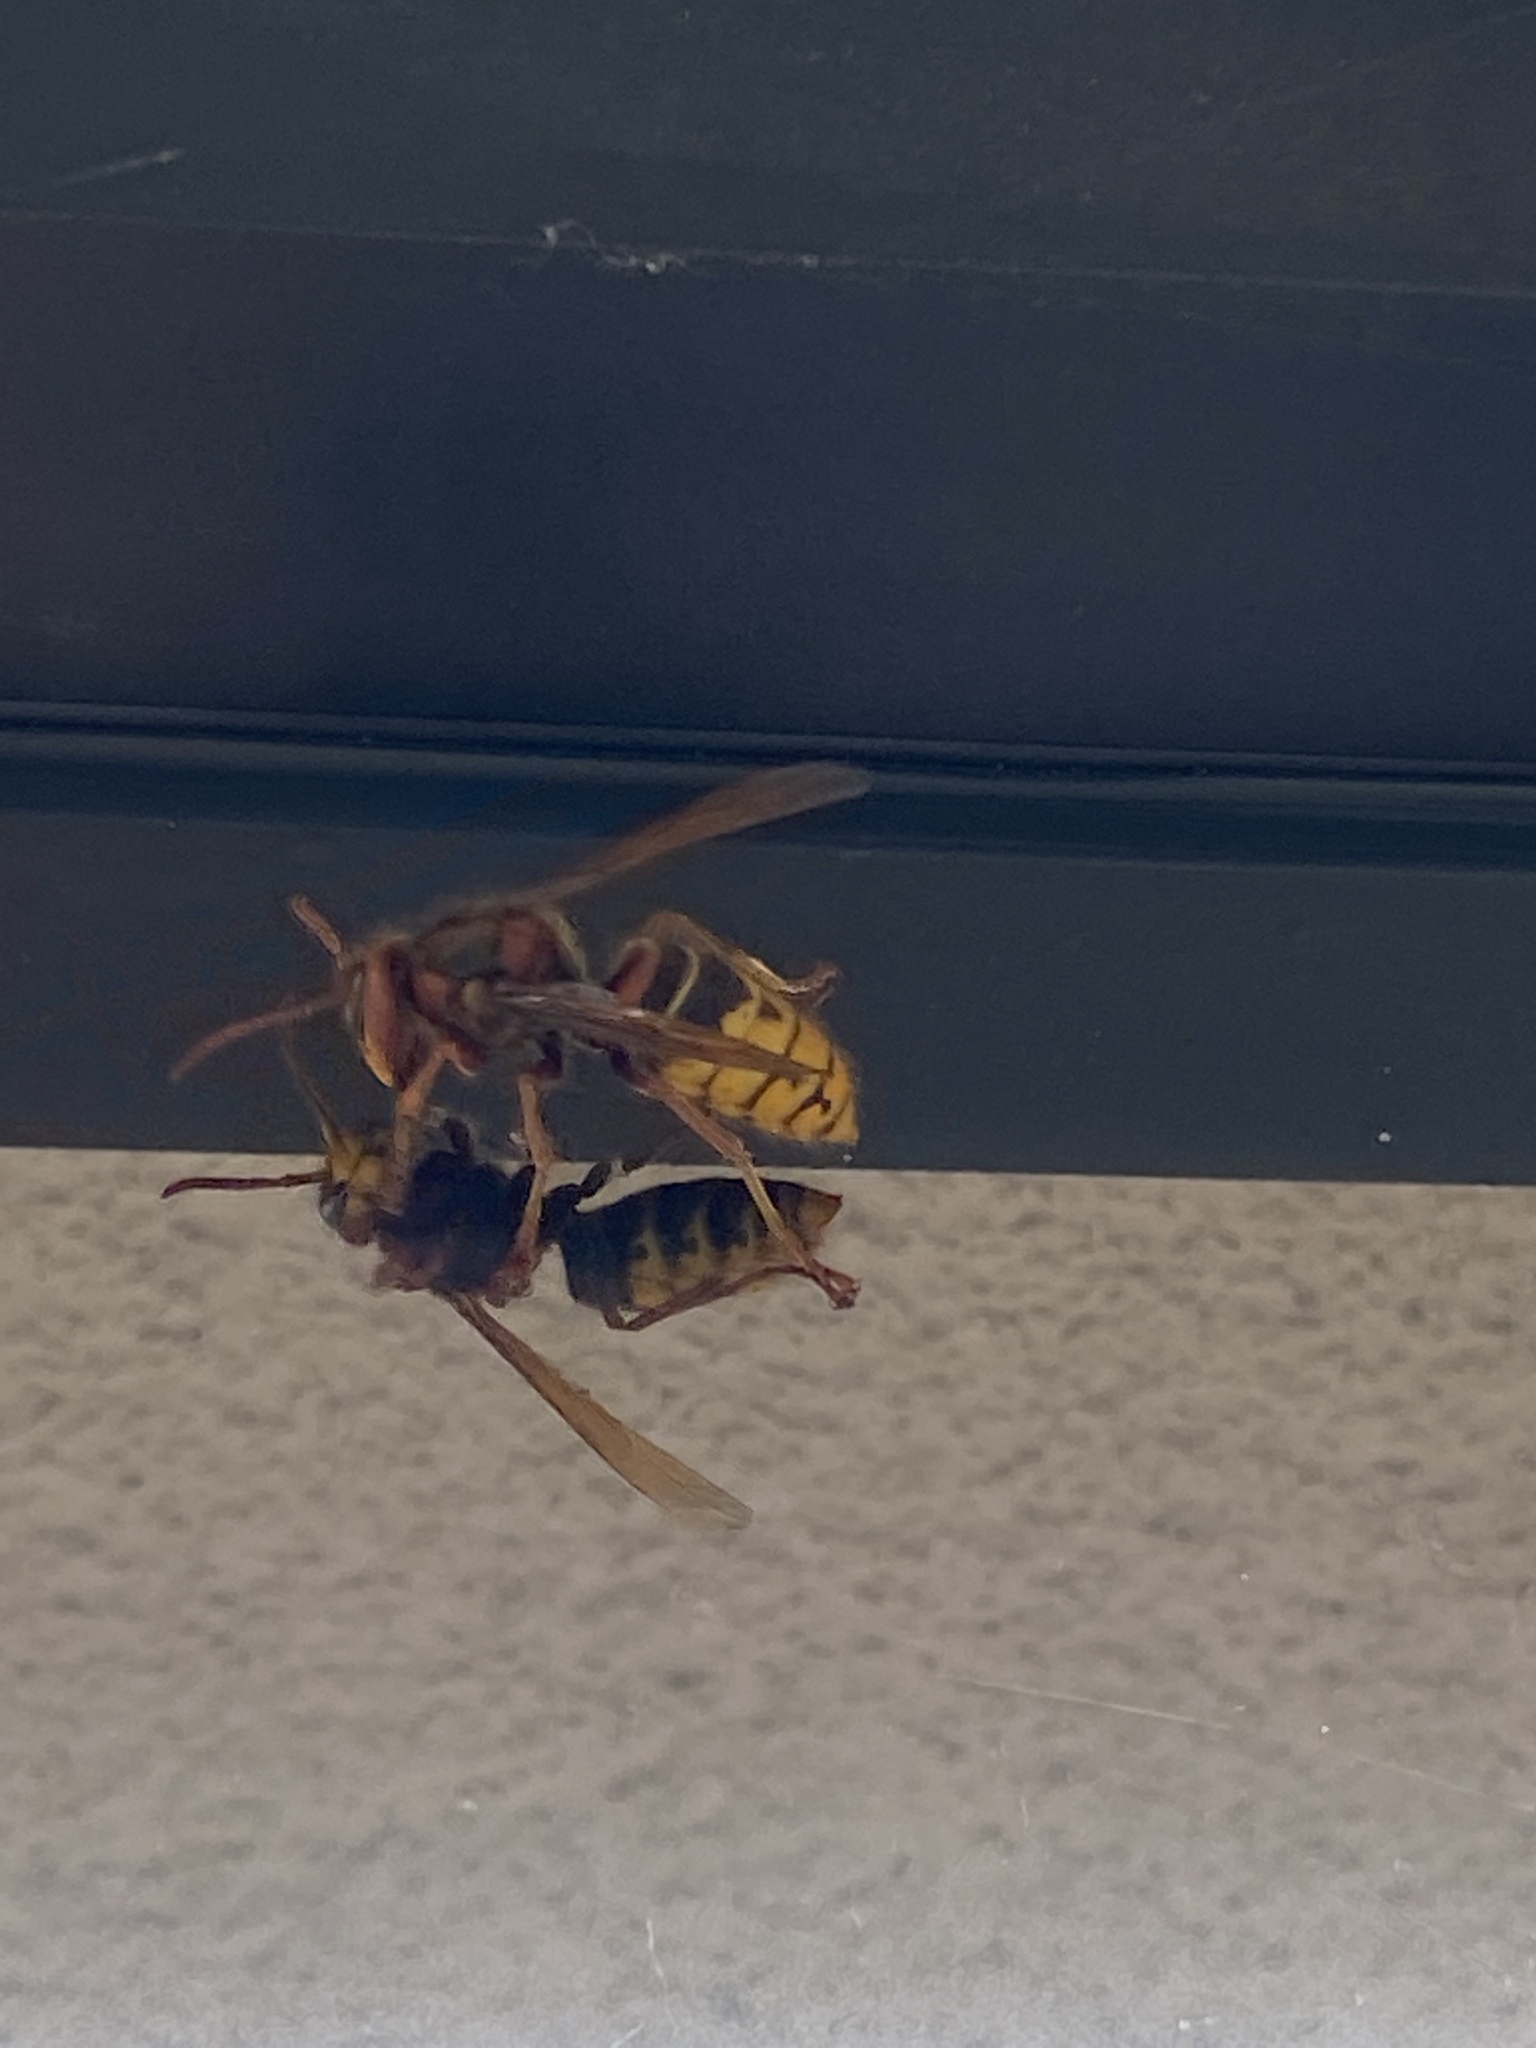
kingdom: Animalia
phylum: Arthropoda
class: Insecta
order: Hymenoptera
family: Vespidae
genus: Vespa
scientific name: Vespa crabro
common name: Hornet
